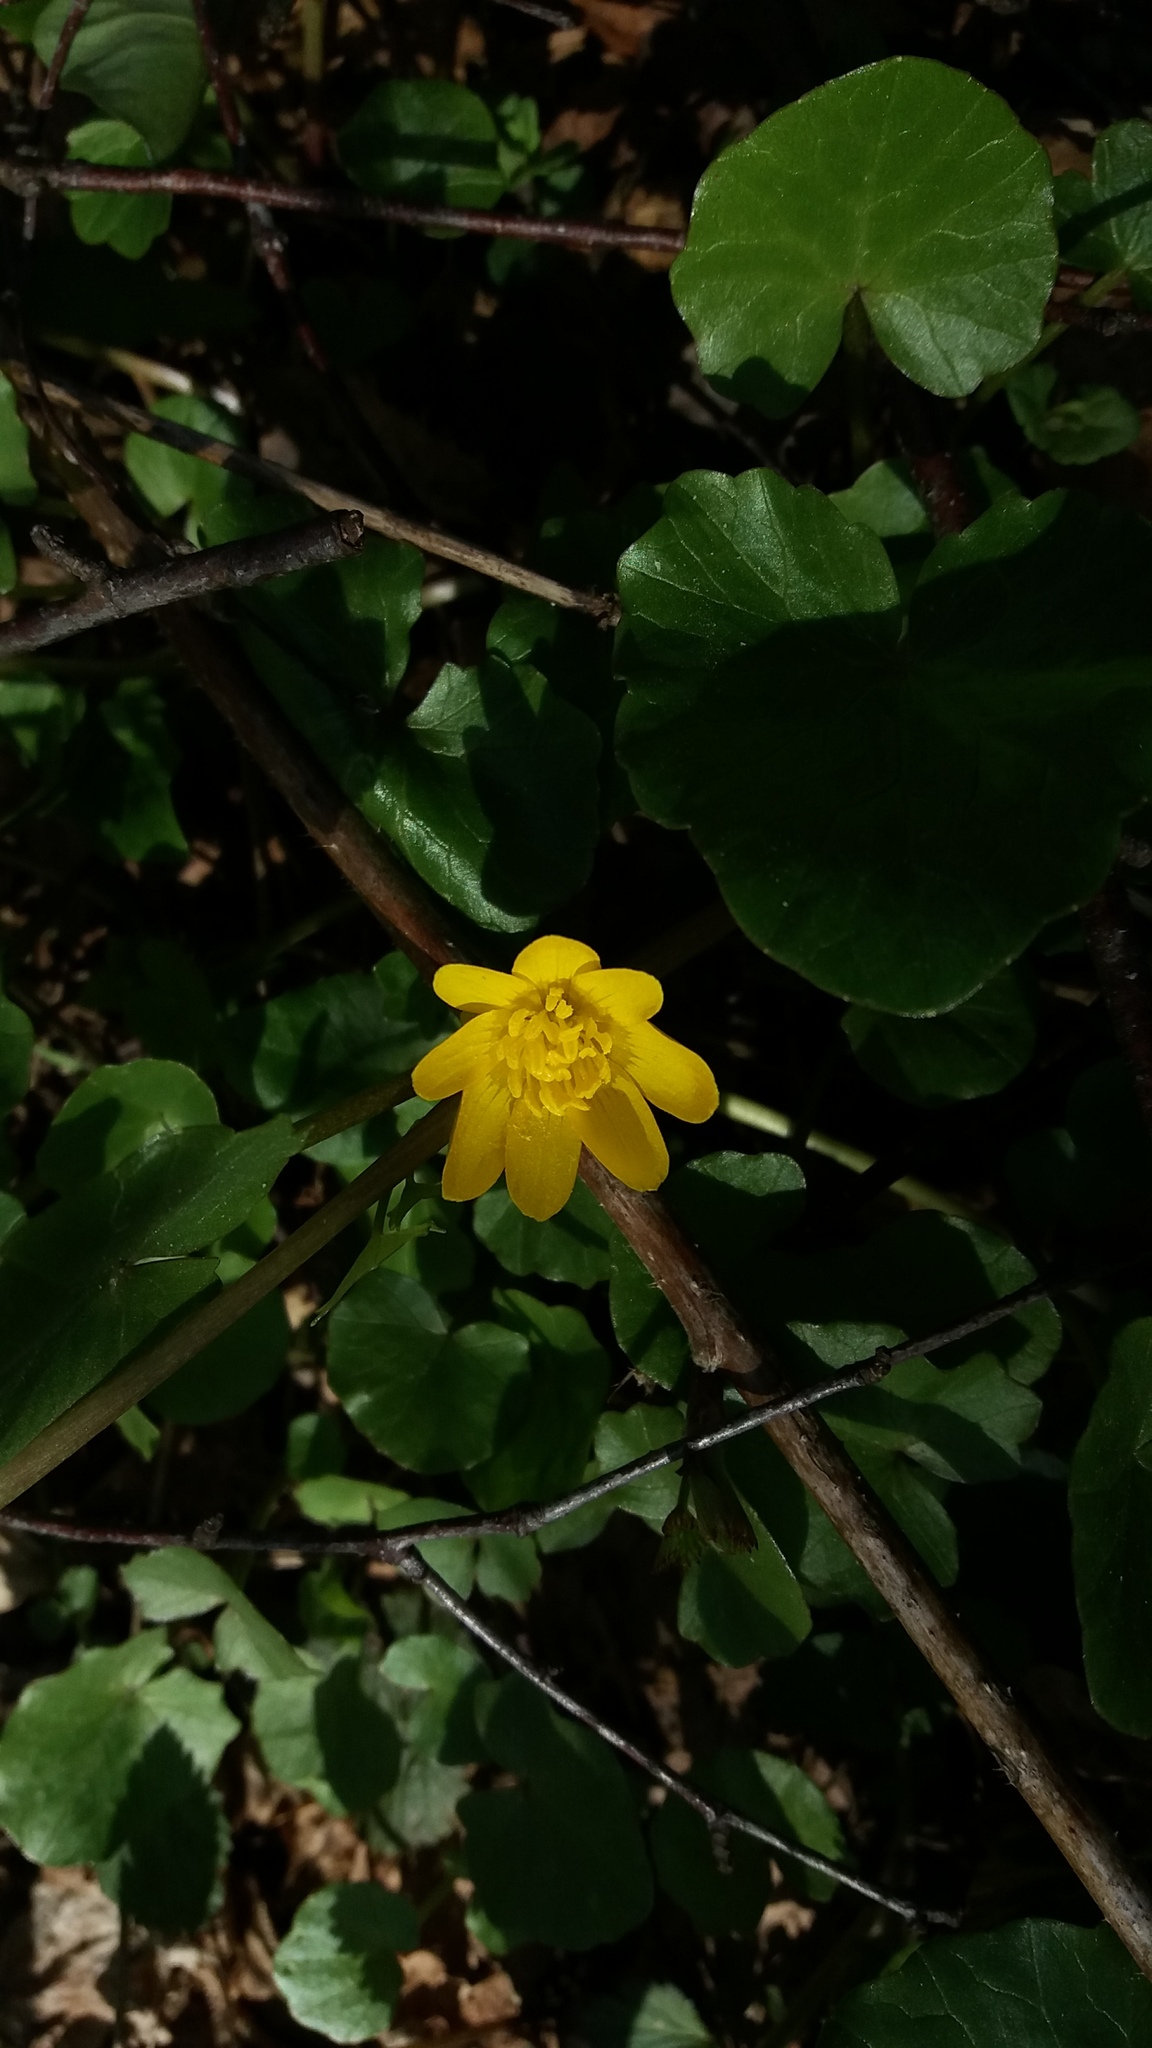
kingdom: Plantae
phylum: Tracheophyta
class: Magnoliopsida
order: Ranunculales
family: Ranunculaceae
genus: Ficaria
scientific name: Ficaria verna
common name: Lesser celandine
